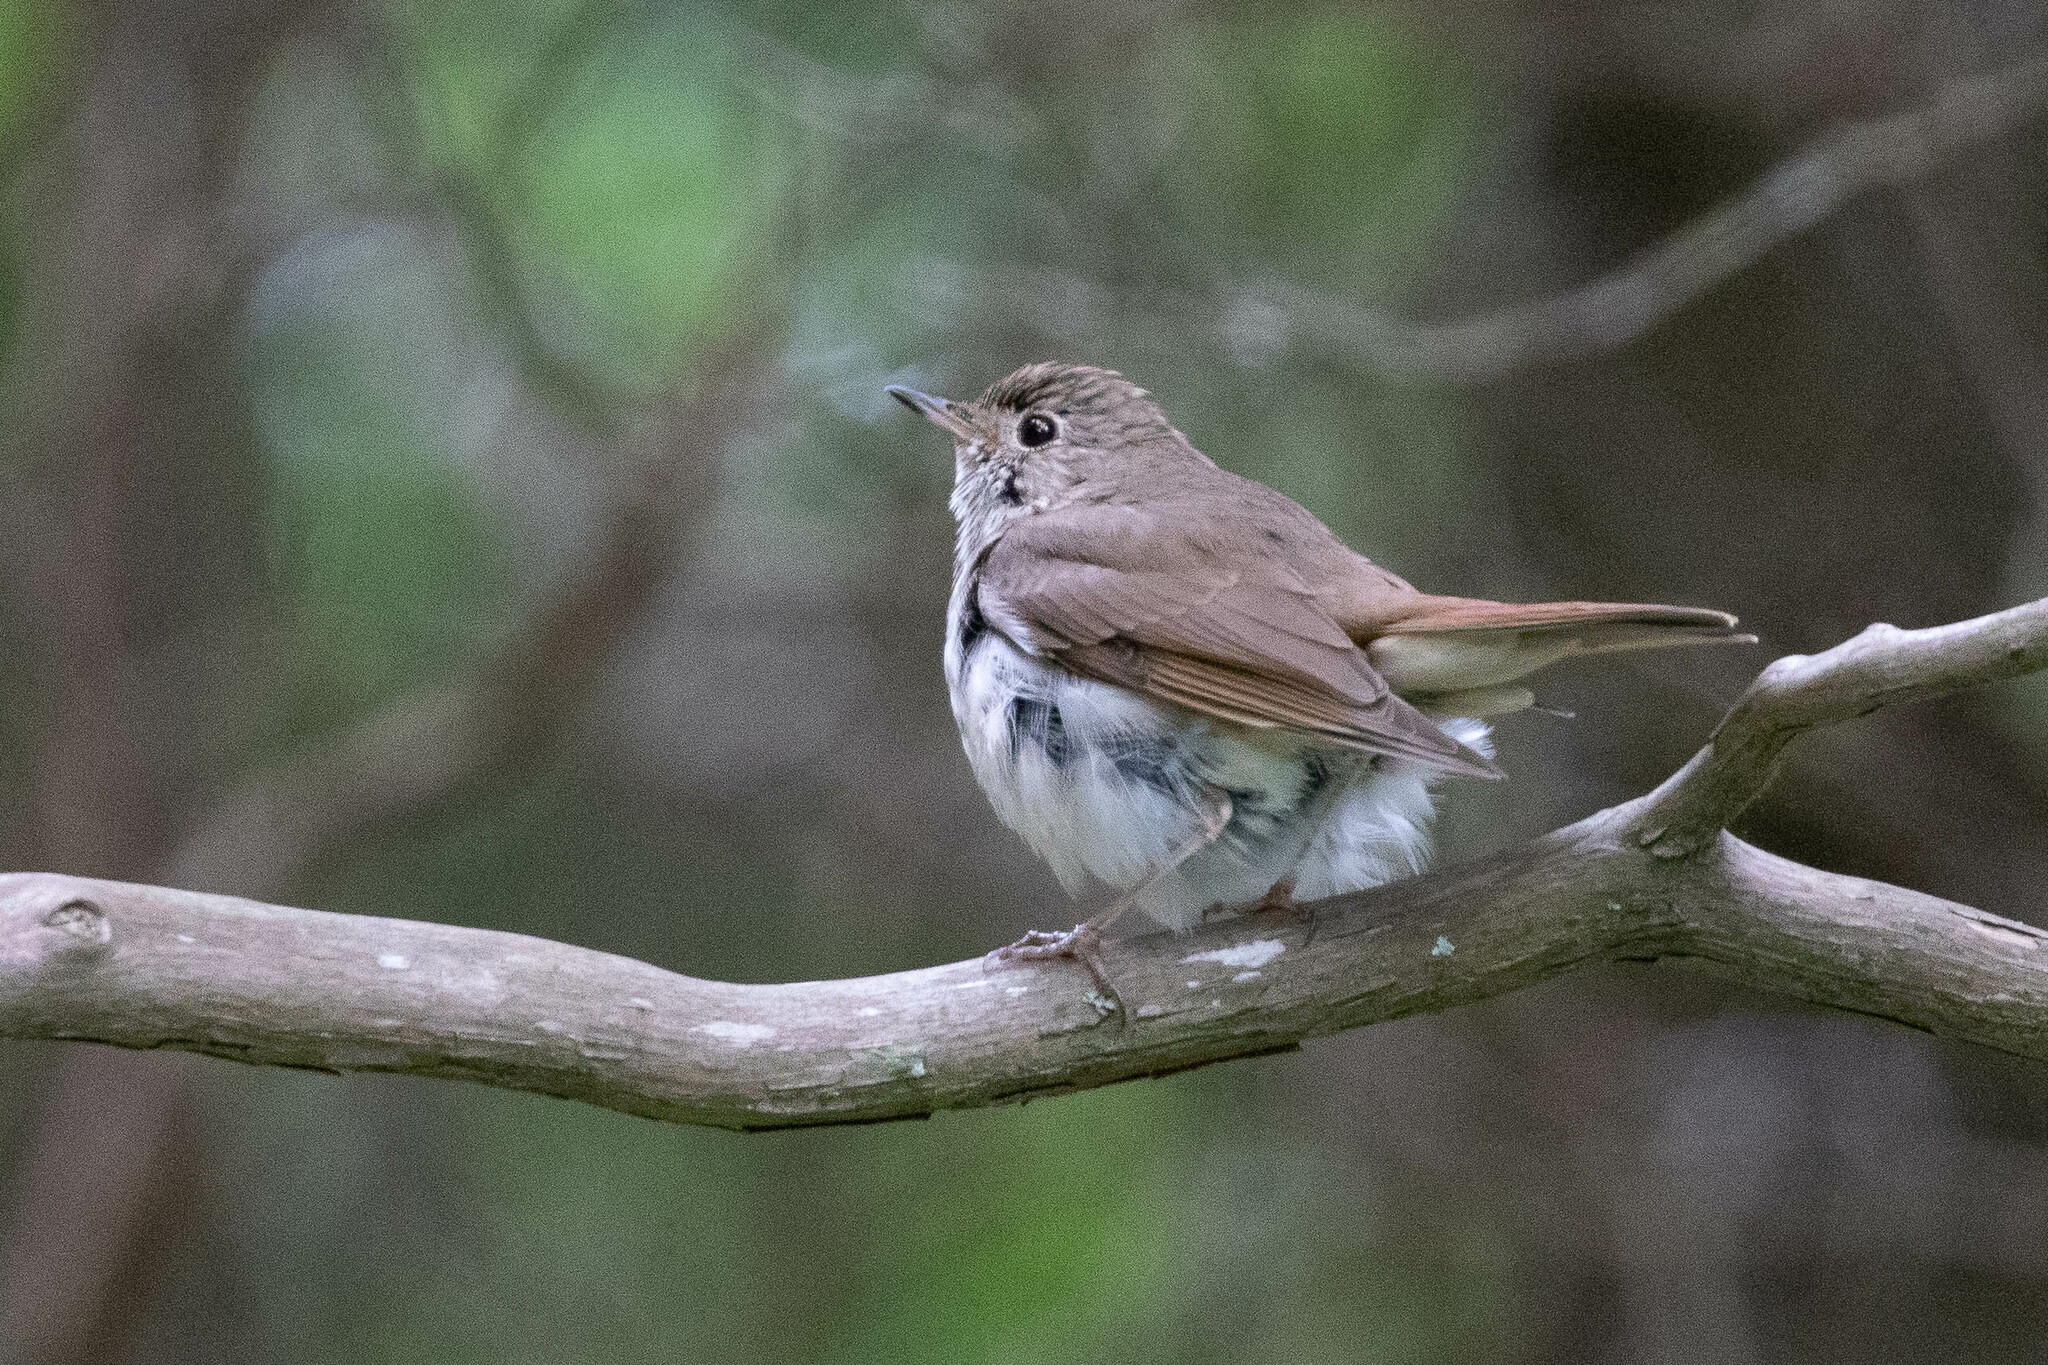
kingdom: Animalia
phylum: Chordata
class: Aves
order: Passeriformes
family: Turdidae
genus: Catharus
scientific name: Catharus guttatus
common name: Hermit thrush
